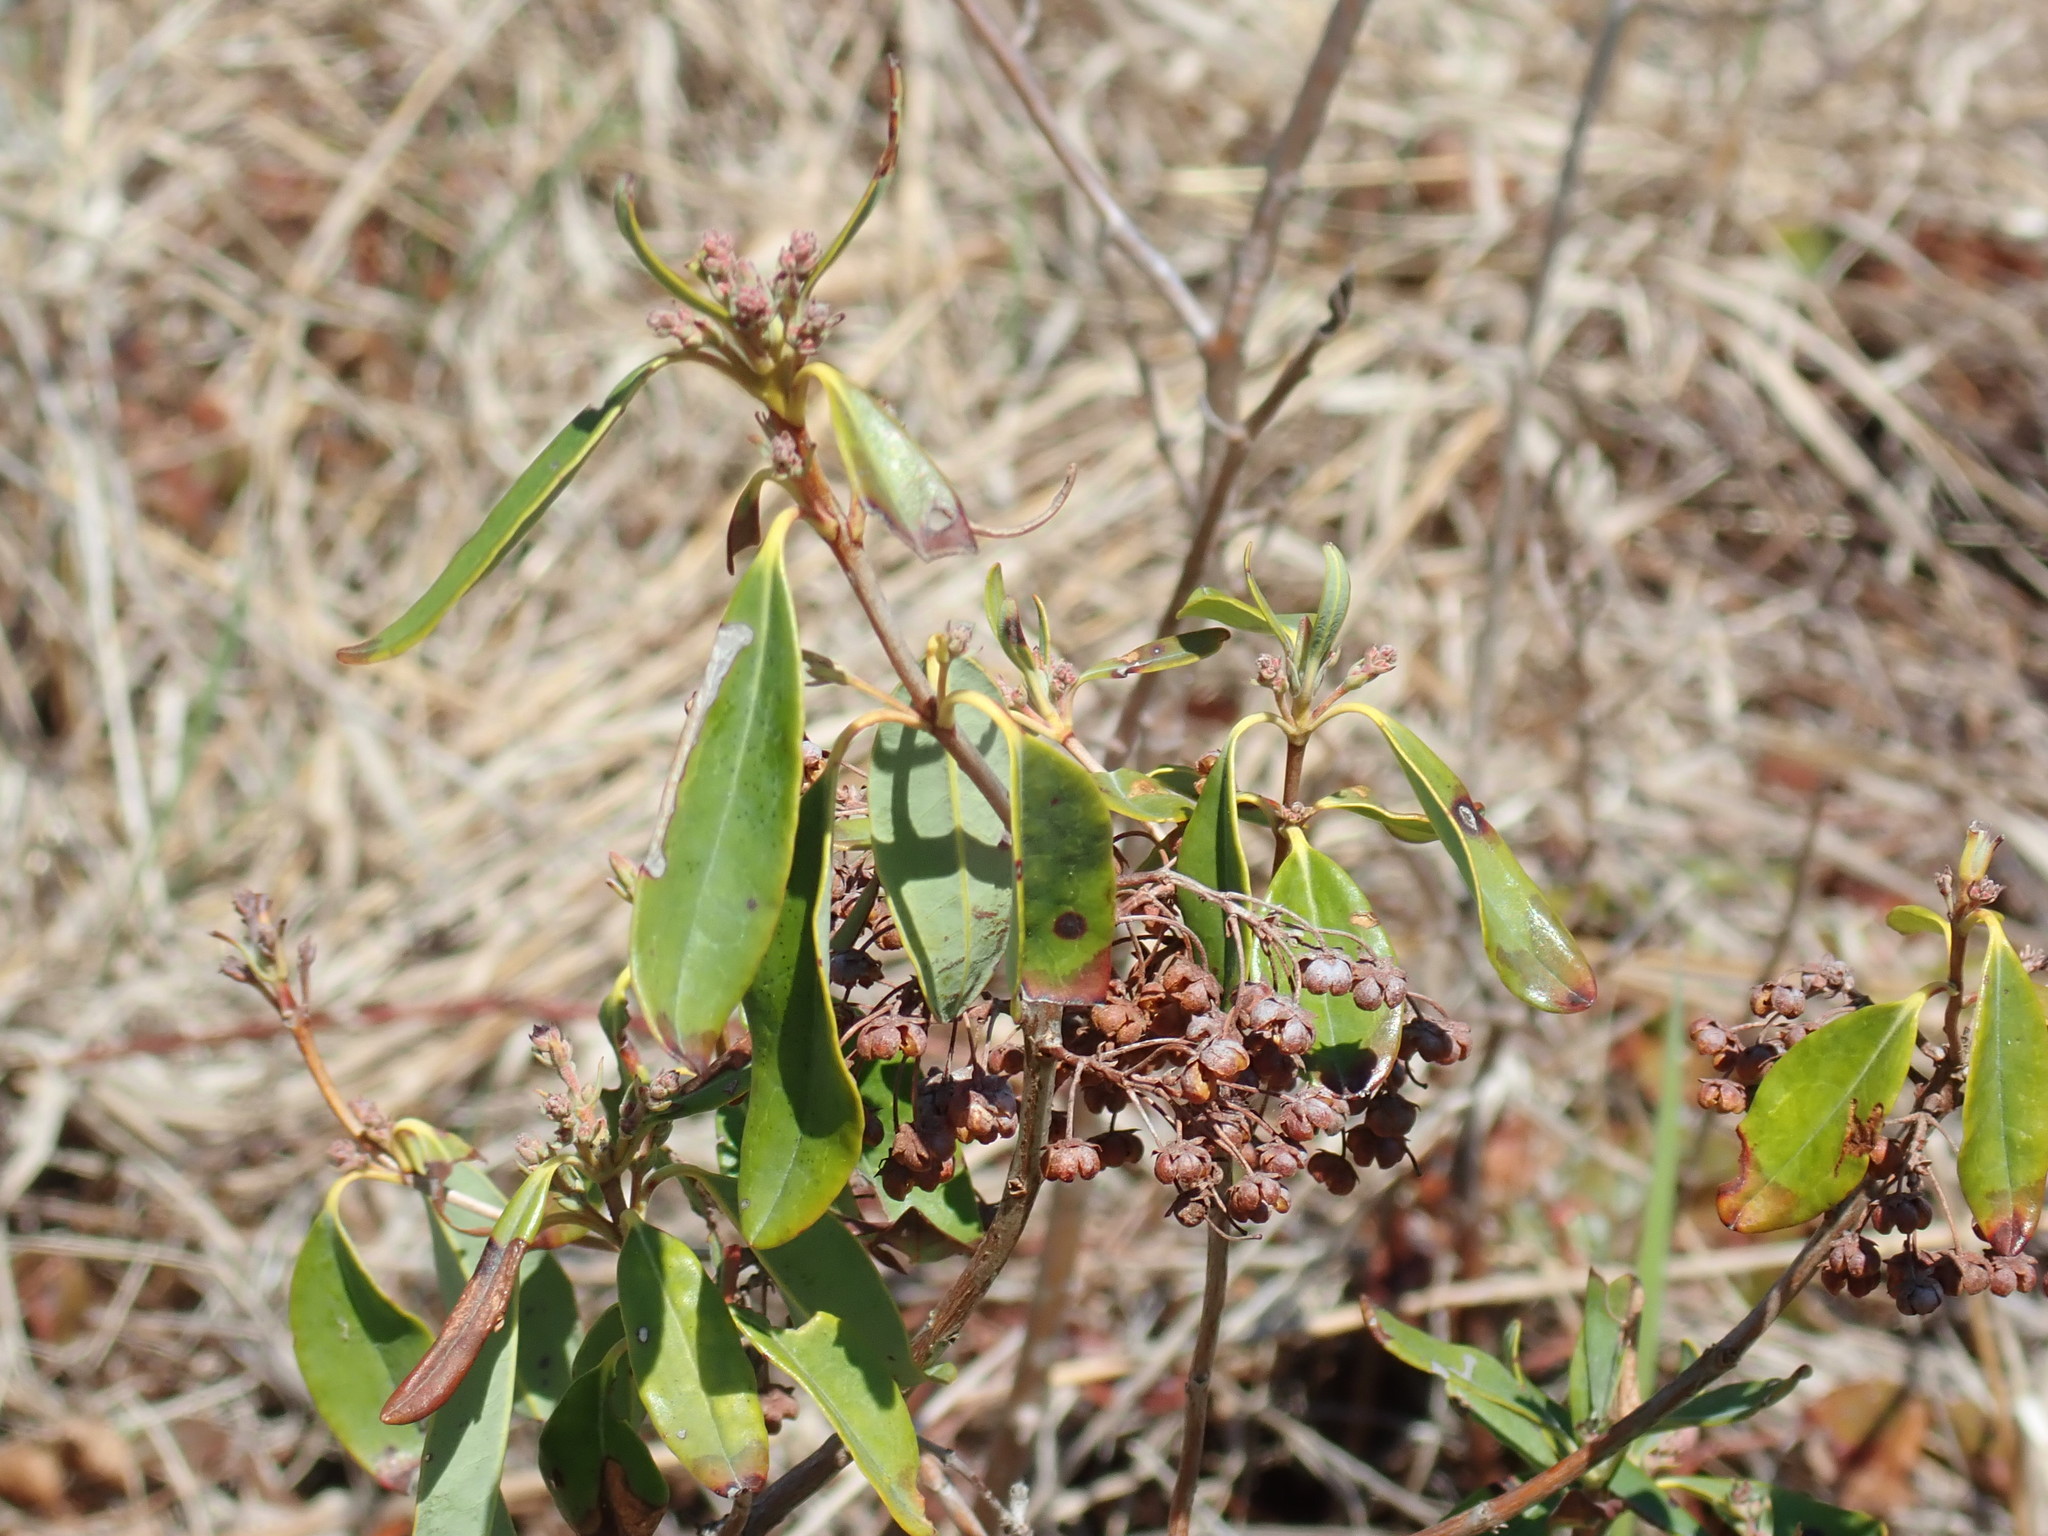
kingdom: Plantae
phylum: Tracheophyta
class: Magnoliopsida
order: Ericales
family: Ericaceae
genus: Kalmia
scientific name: Kalmia angustifolia
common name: Sheep-laurel
